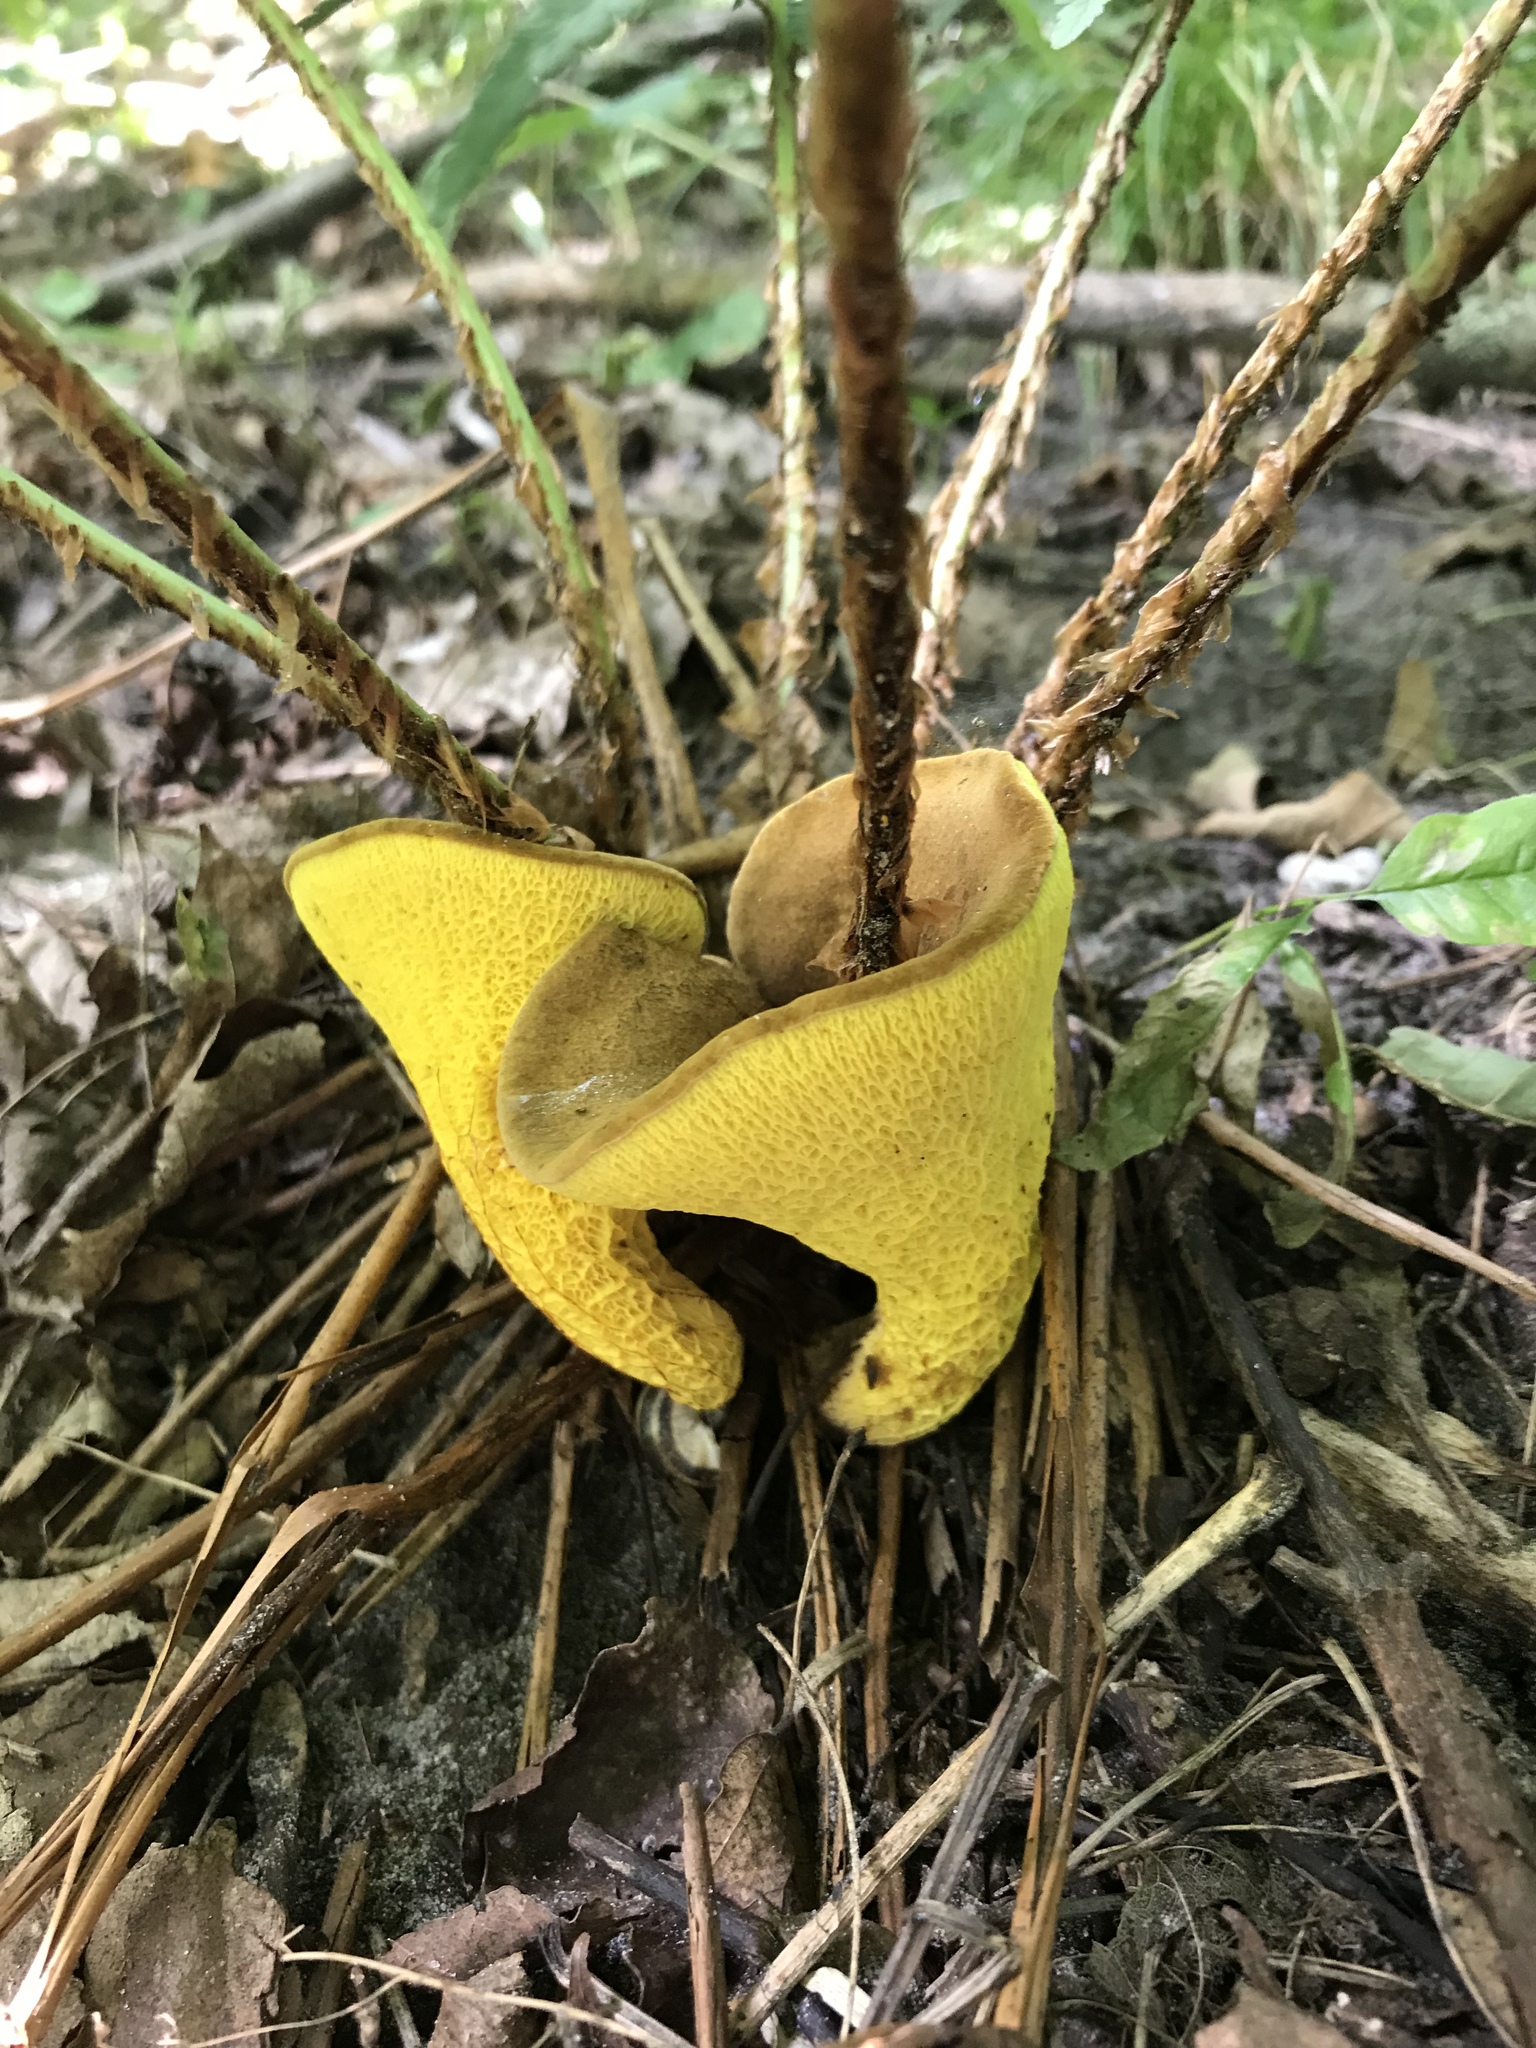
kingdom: Fungi
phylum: Basidiomycota
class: Agaricomycetes
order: Boletales
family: Boletinellaceae
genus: Boletinellus
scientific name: Boletinellus merulioides
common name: Ash tree bolete
